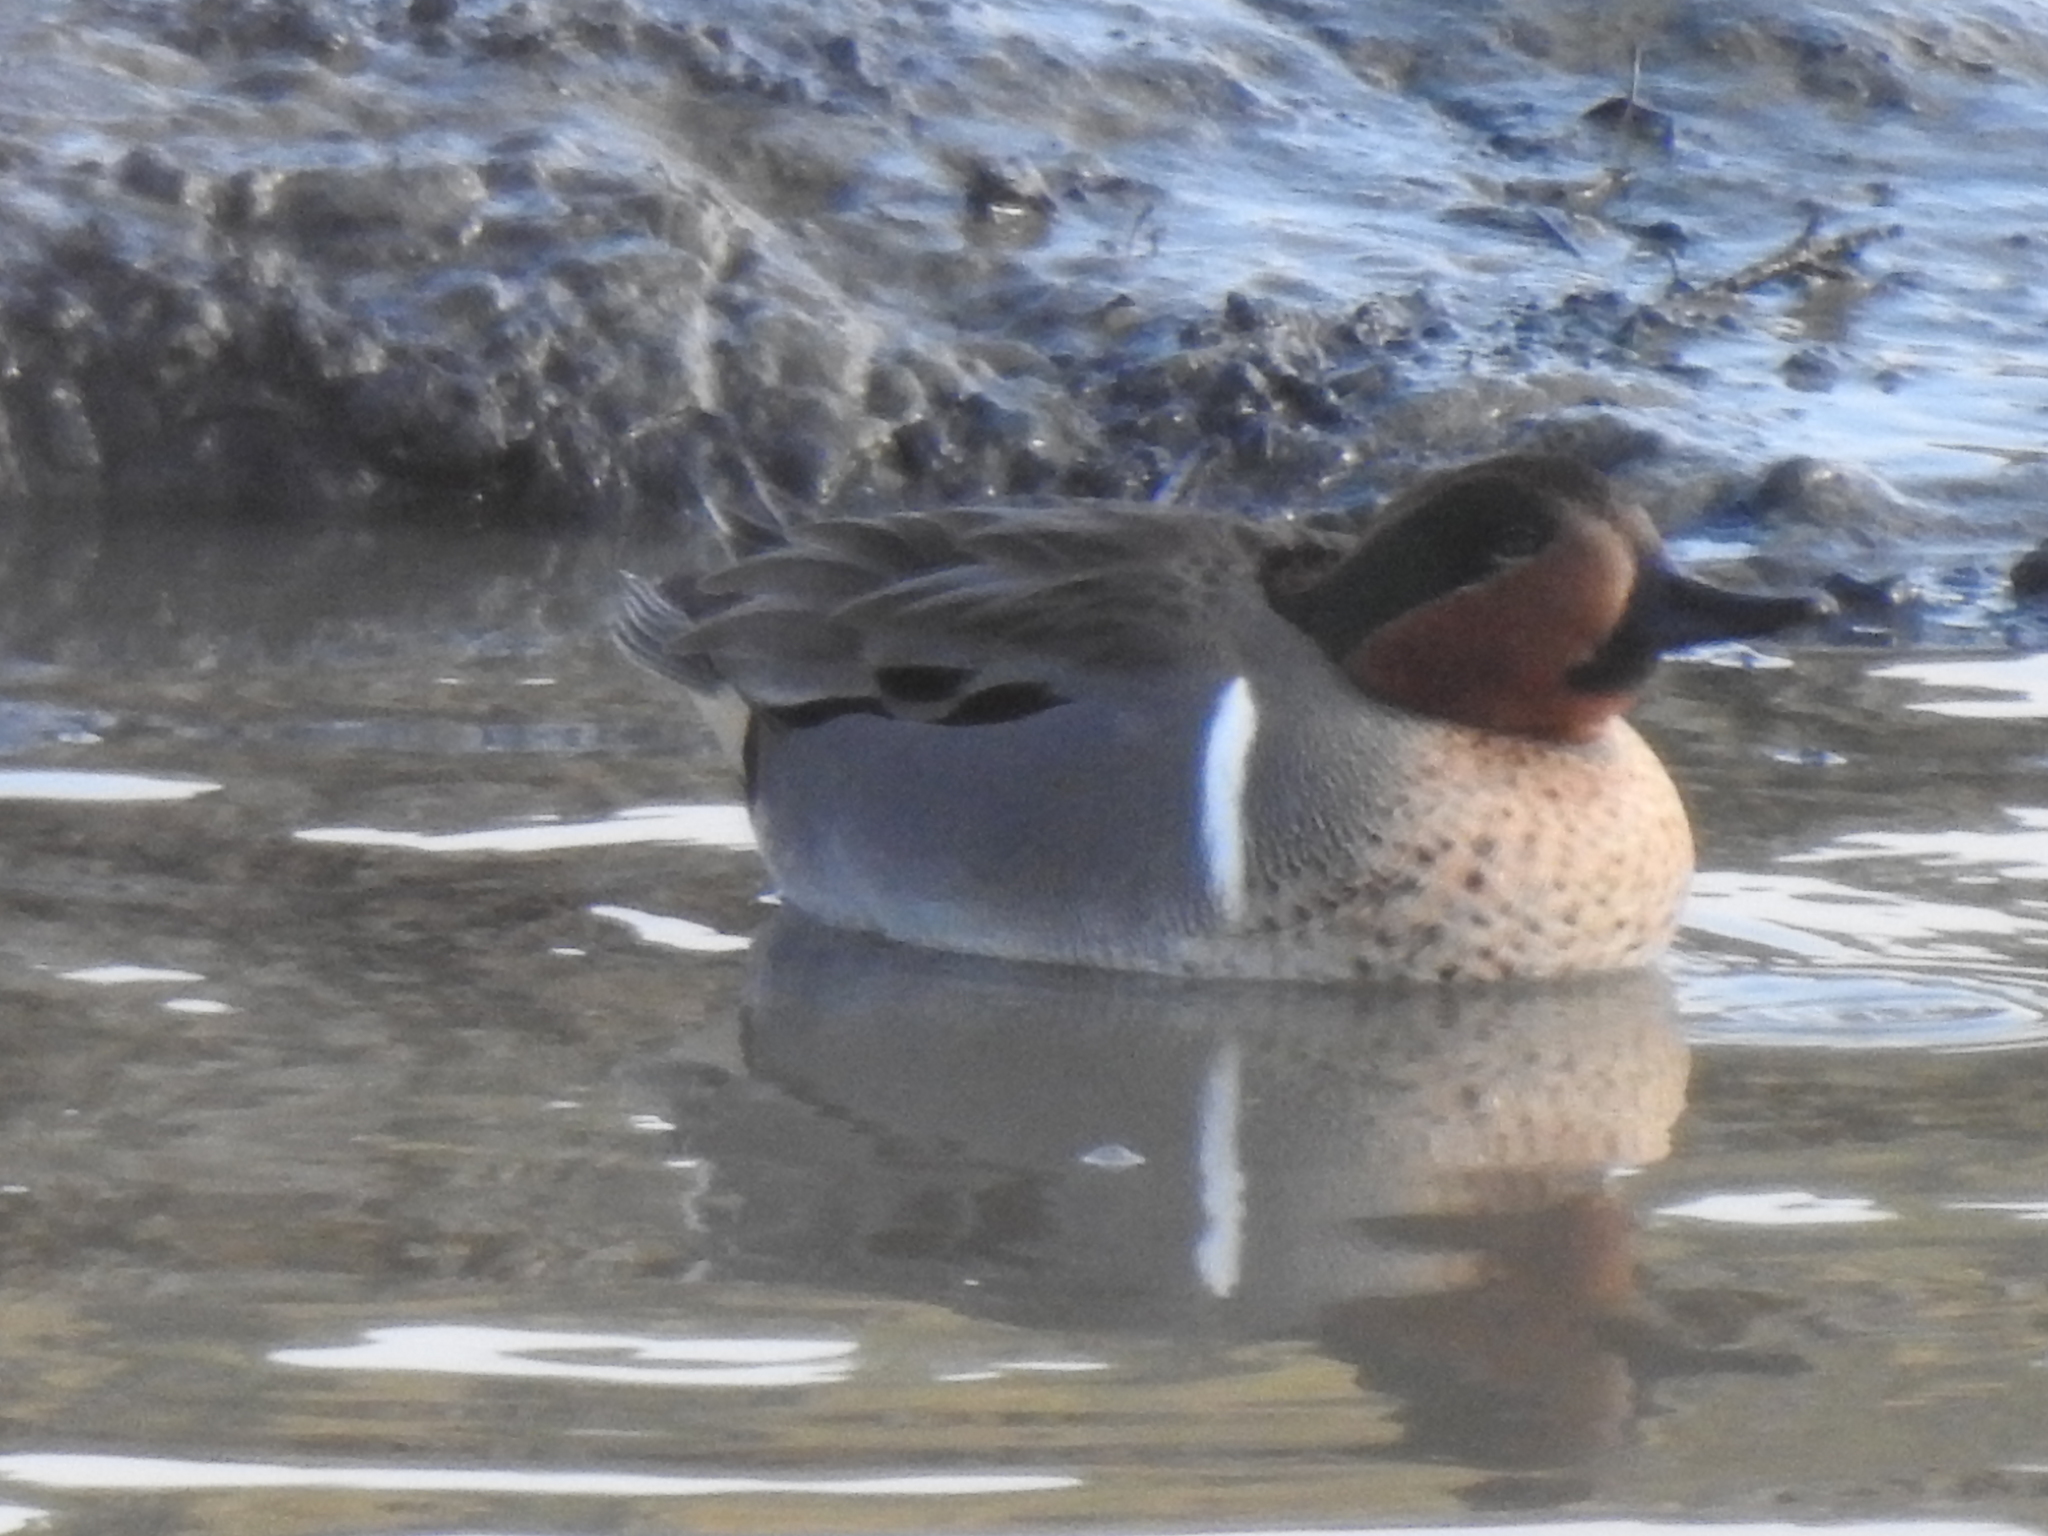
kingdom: Animalia
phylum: Chordata
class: Aves
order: Anseriformes
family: Anatidae
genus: Anas
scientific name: Anas crecca
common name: Eurasian teal
